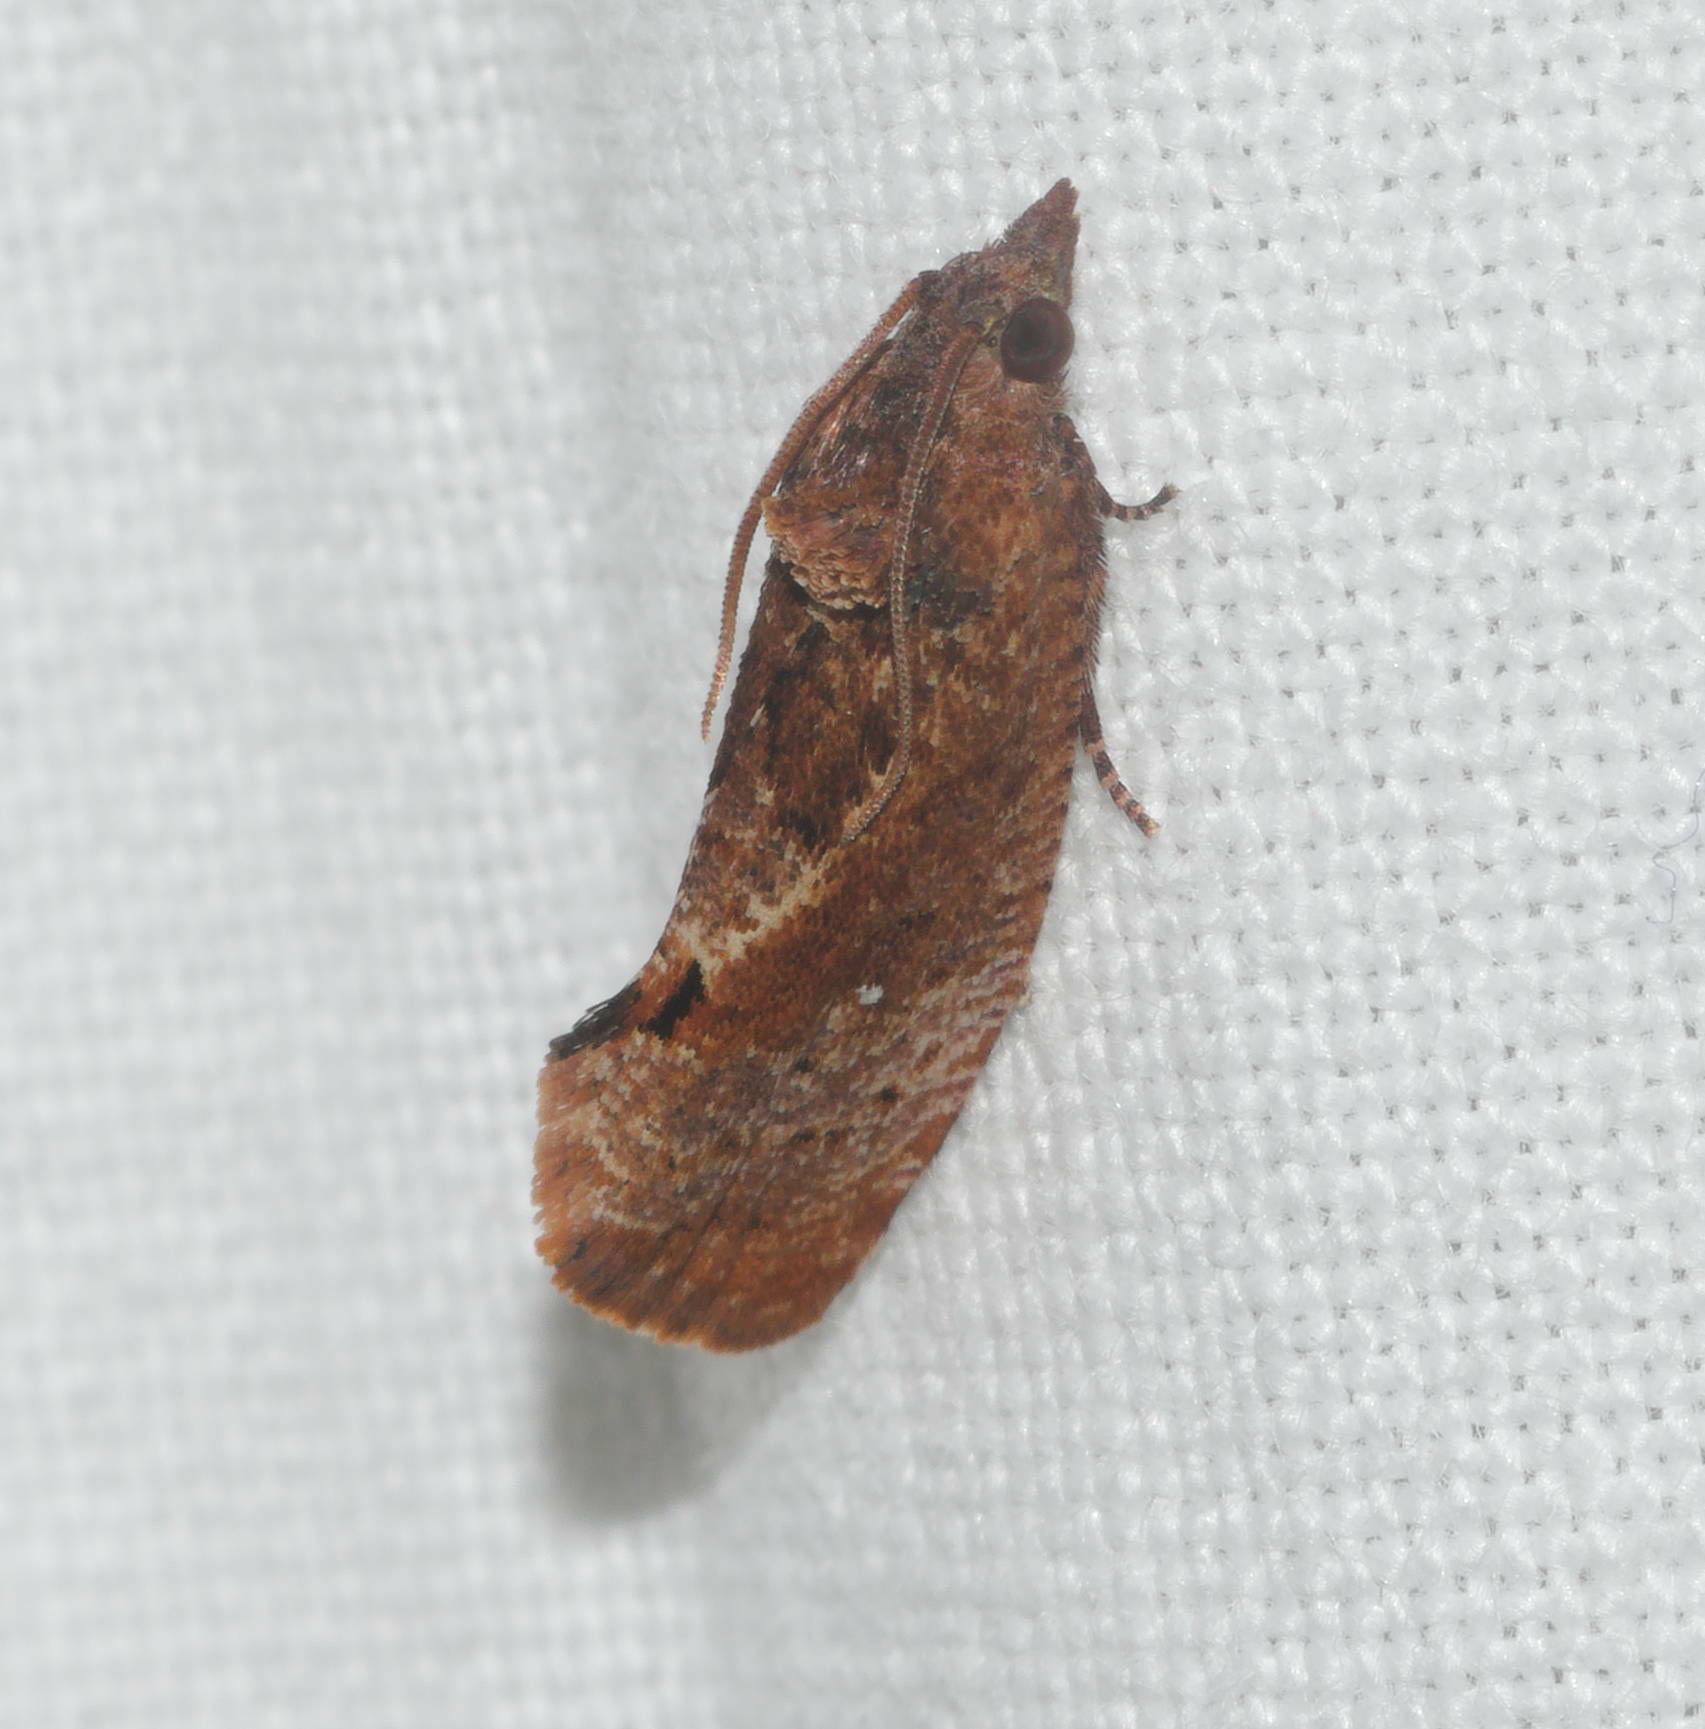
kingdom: Animalia
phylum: Arthropoda
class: Insecta
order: Lepidoptera
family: Tortricidae
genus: Cryptophlebia
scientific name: Cryptophlebia illepida
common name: Moth
